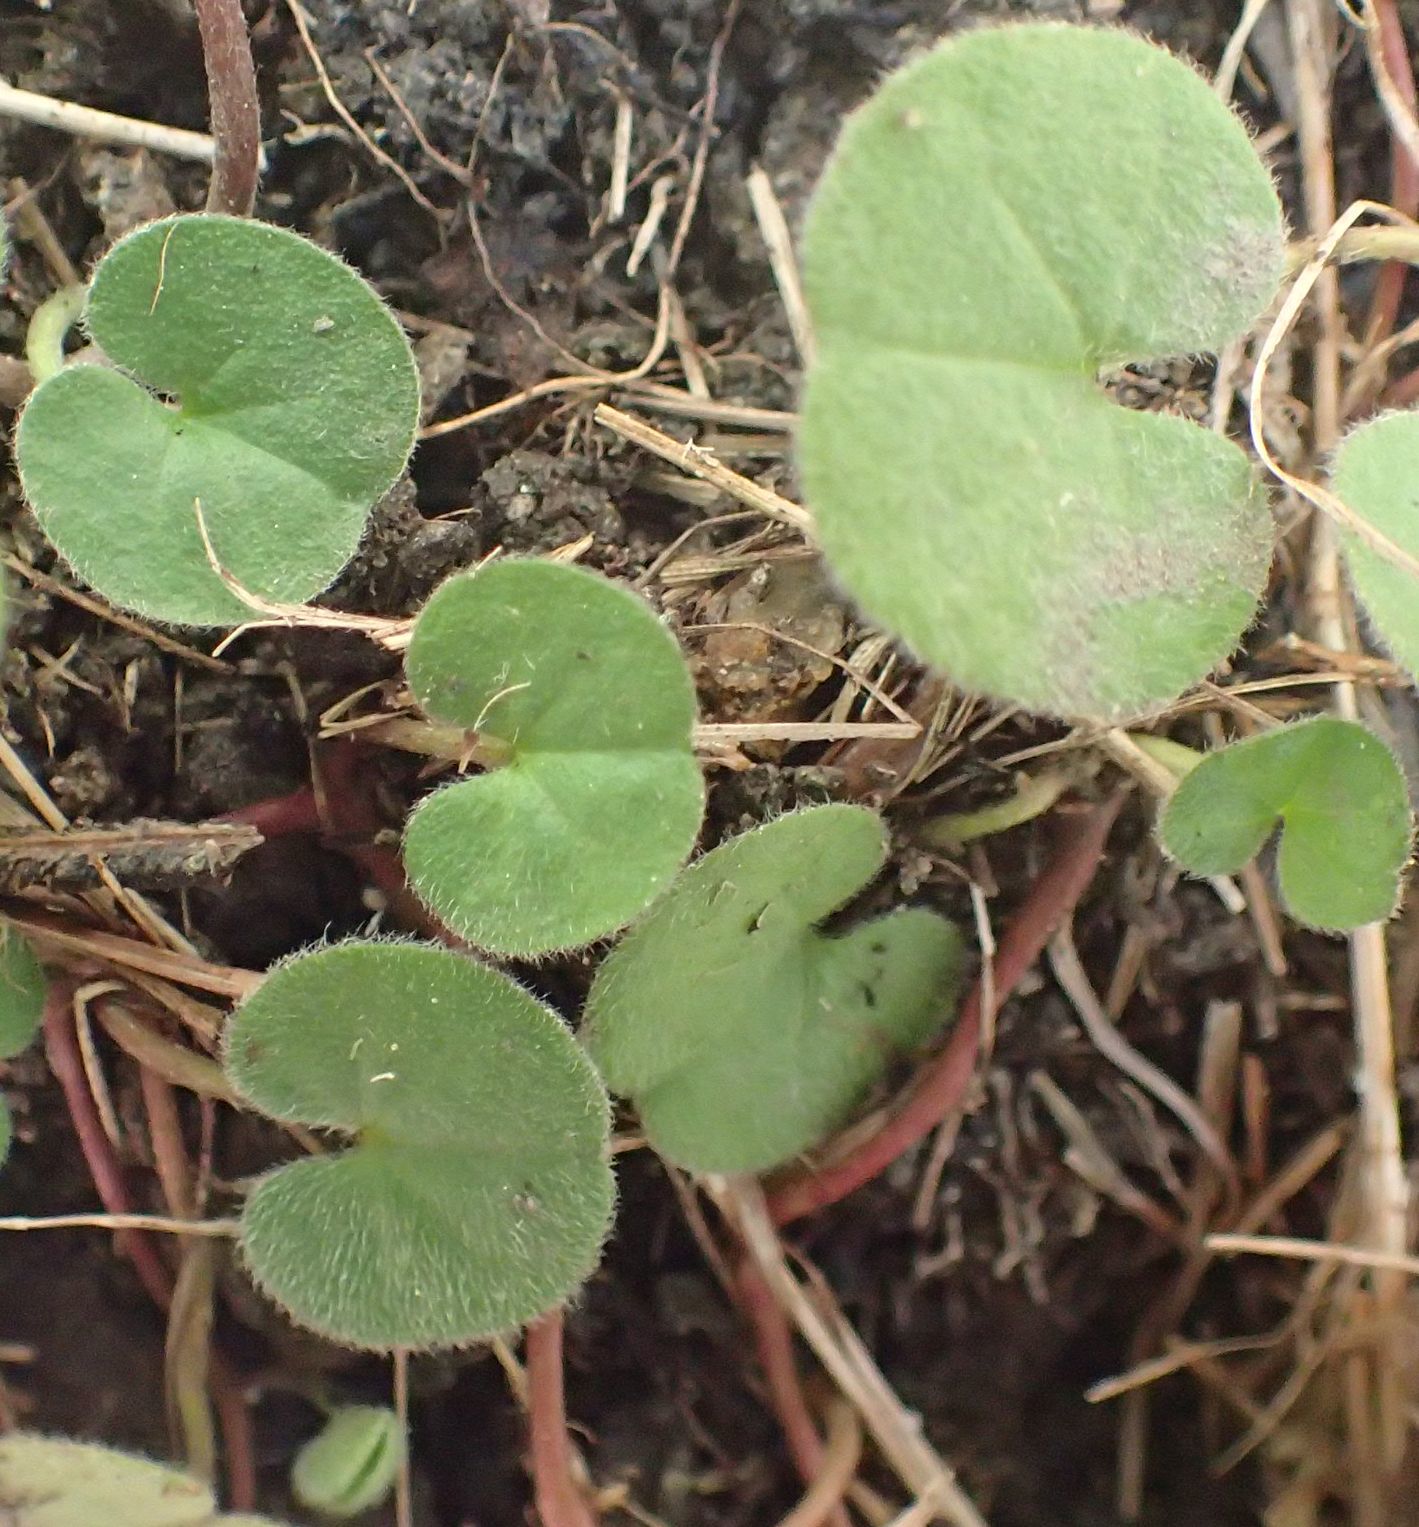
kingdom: Plantae
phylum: Tracheophyta
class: Magnoliopsida
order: Solanales
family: Convolvulaceae
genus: Dichondra
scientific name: Dichondra repens
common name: Kidneyweed
